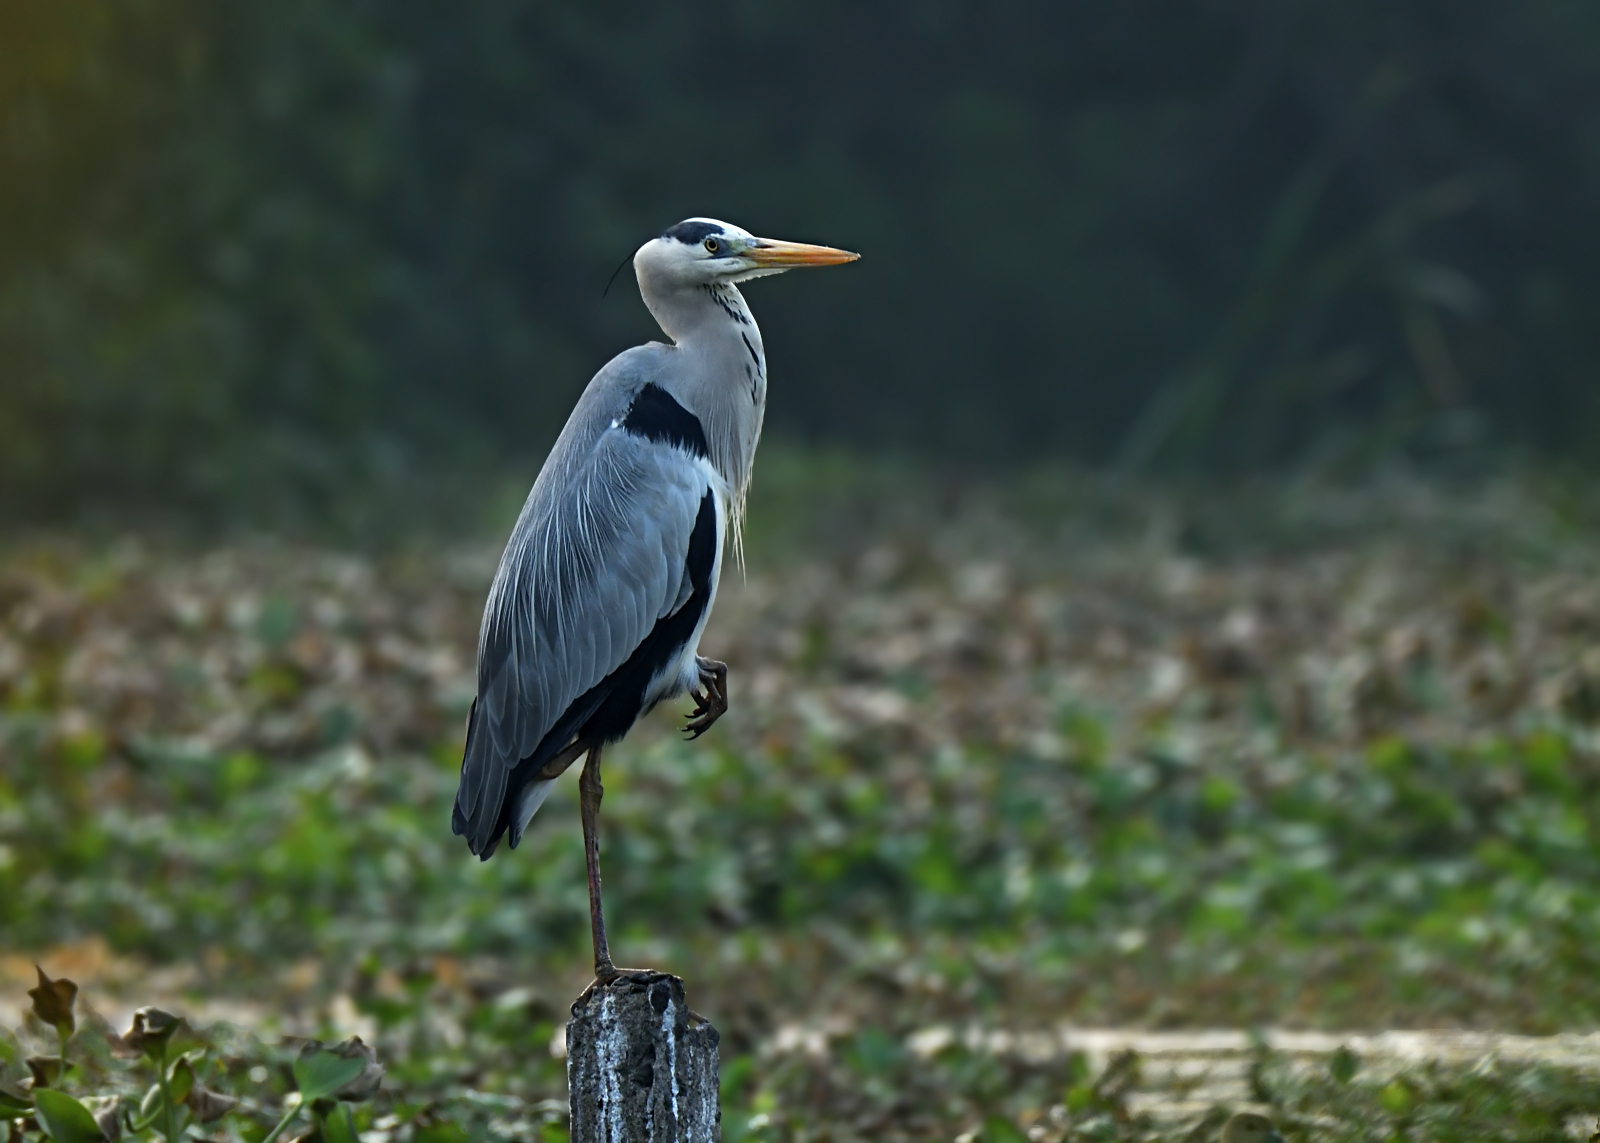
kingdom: Animalia
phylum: Chordata
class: Aves
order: Pelecaniformes
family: Ardeidae
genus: Ardea
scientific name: Ardea cinerea
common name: Grey heron
